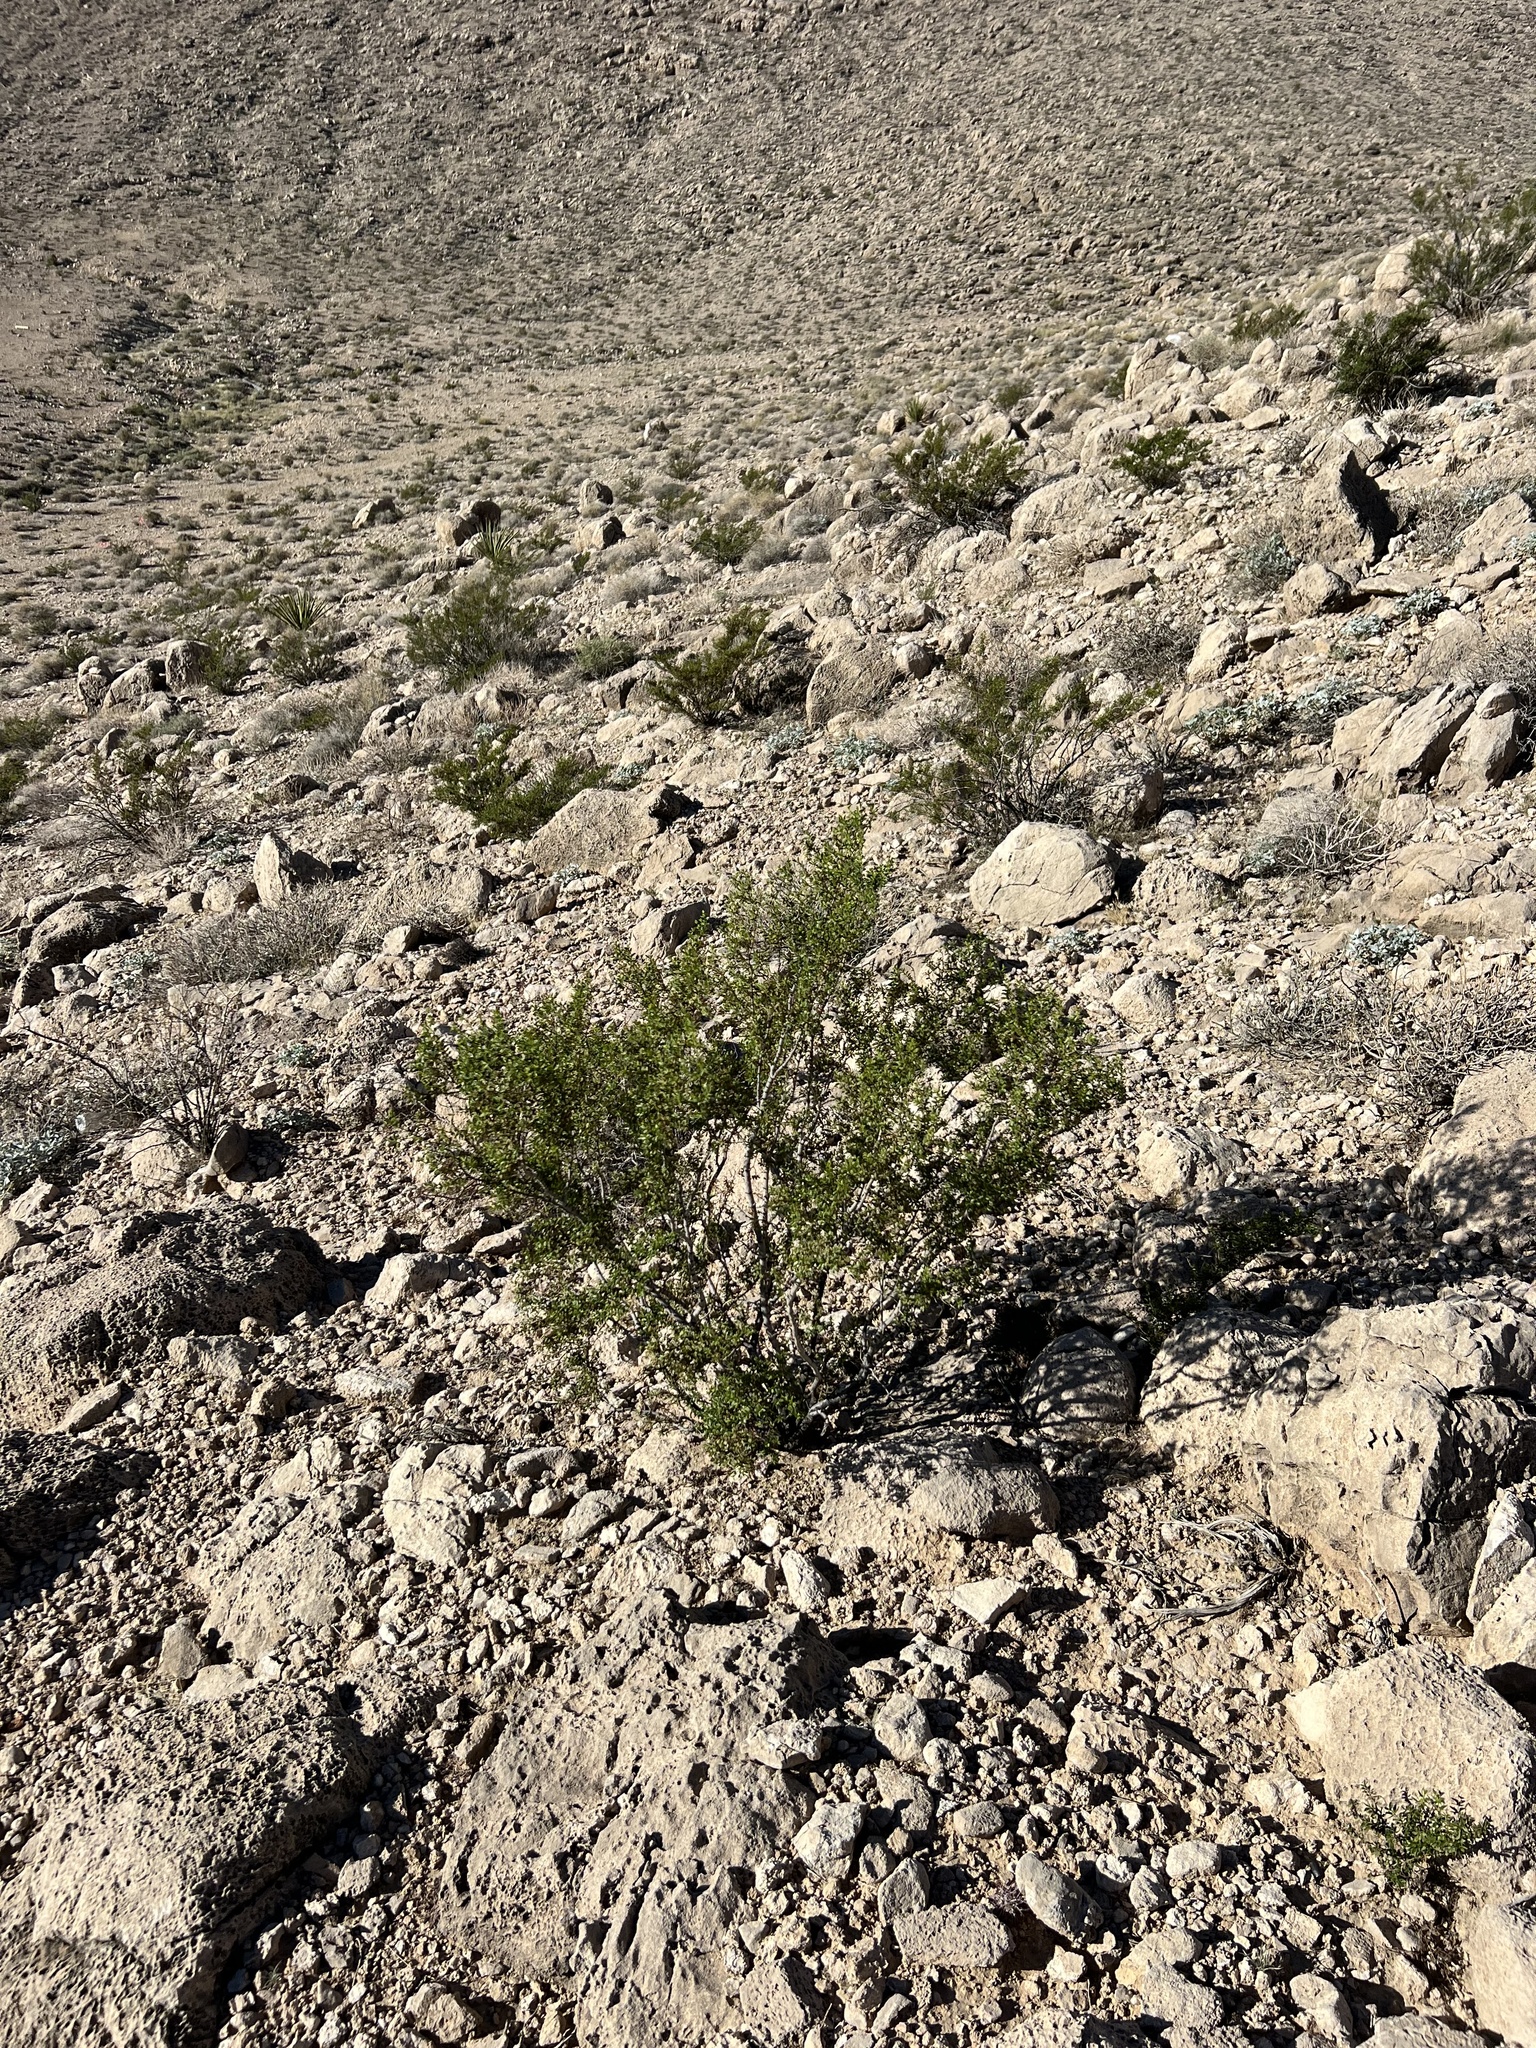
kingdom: Plantae
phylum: Tracheophyta
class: Magnoliopsida
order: Zygophyllales
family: Zygophyllaceae
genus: Larrea
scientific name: Larrea tridentata
